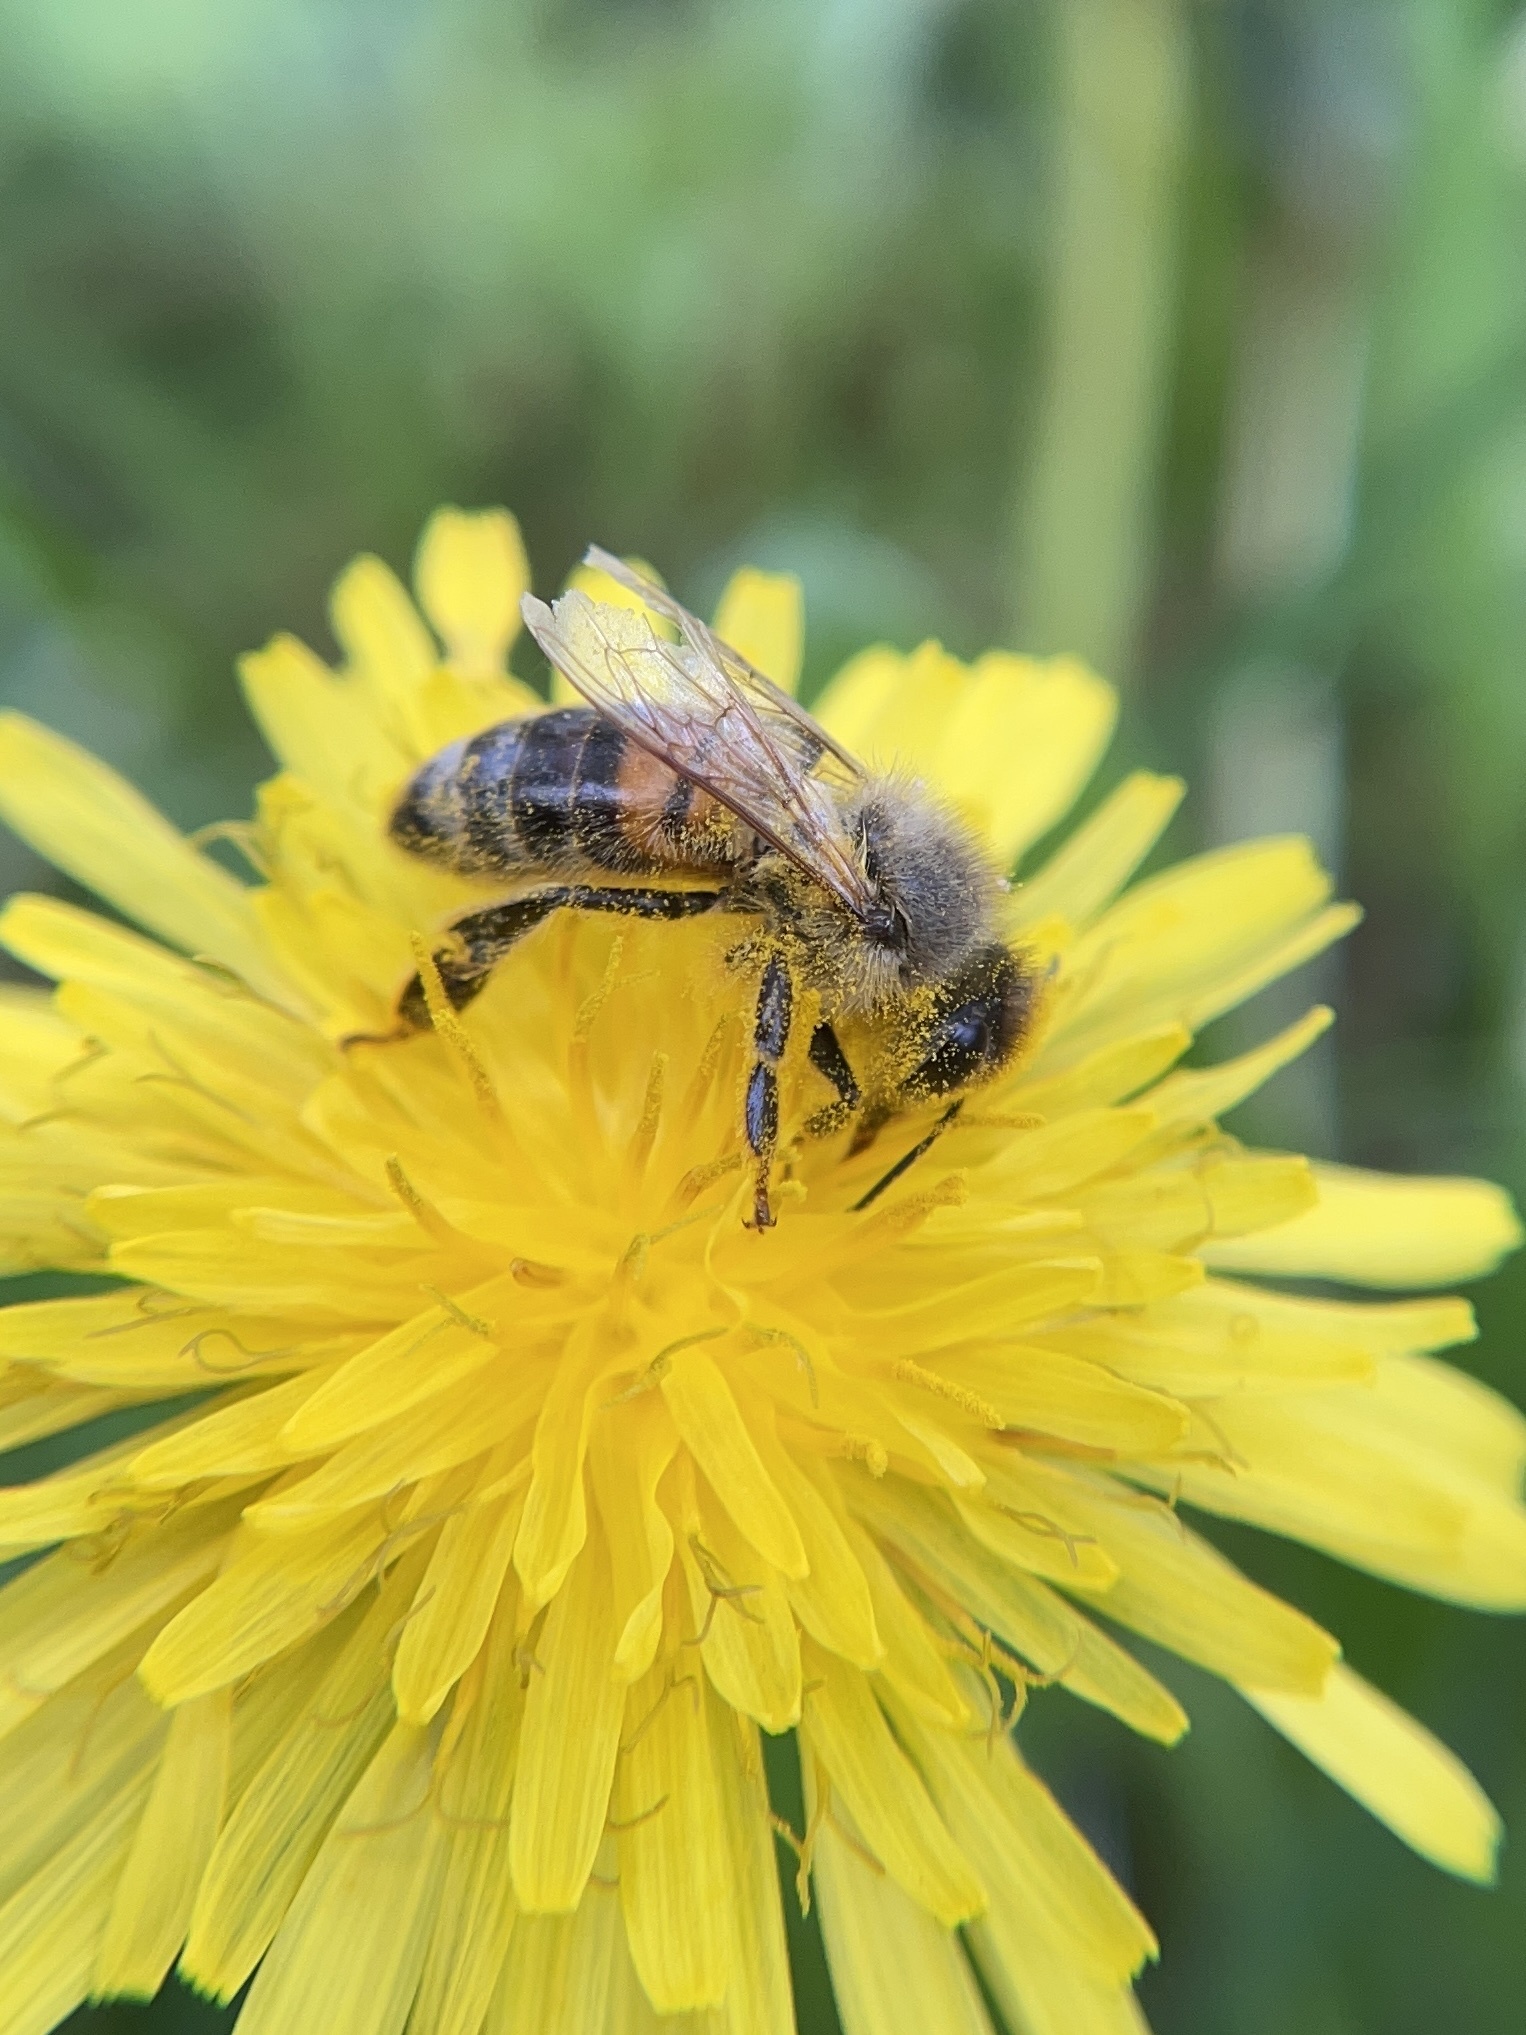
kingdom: Animalia
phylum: Arthropoda
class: Insecta
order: Hymenoptera
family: Apidae
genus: Apis
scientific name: Apis mellifera
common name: Honey bee
